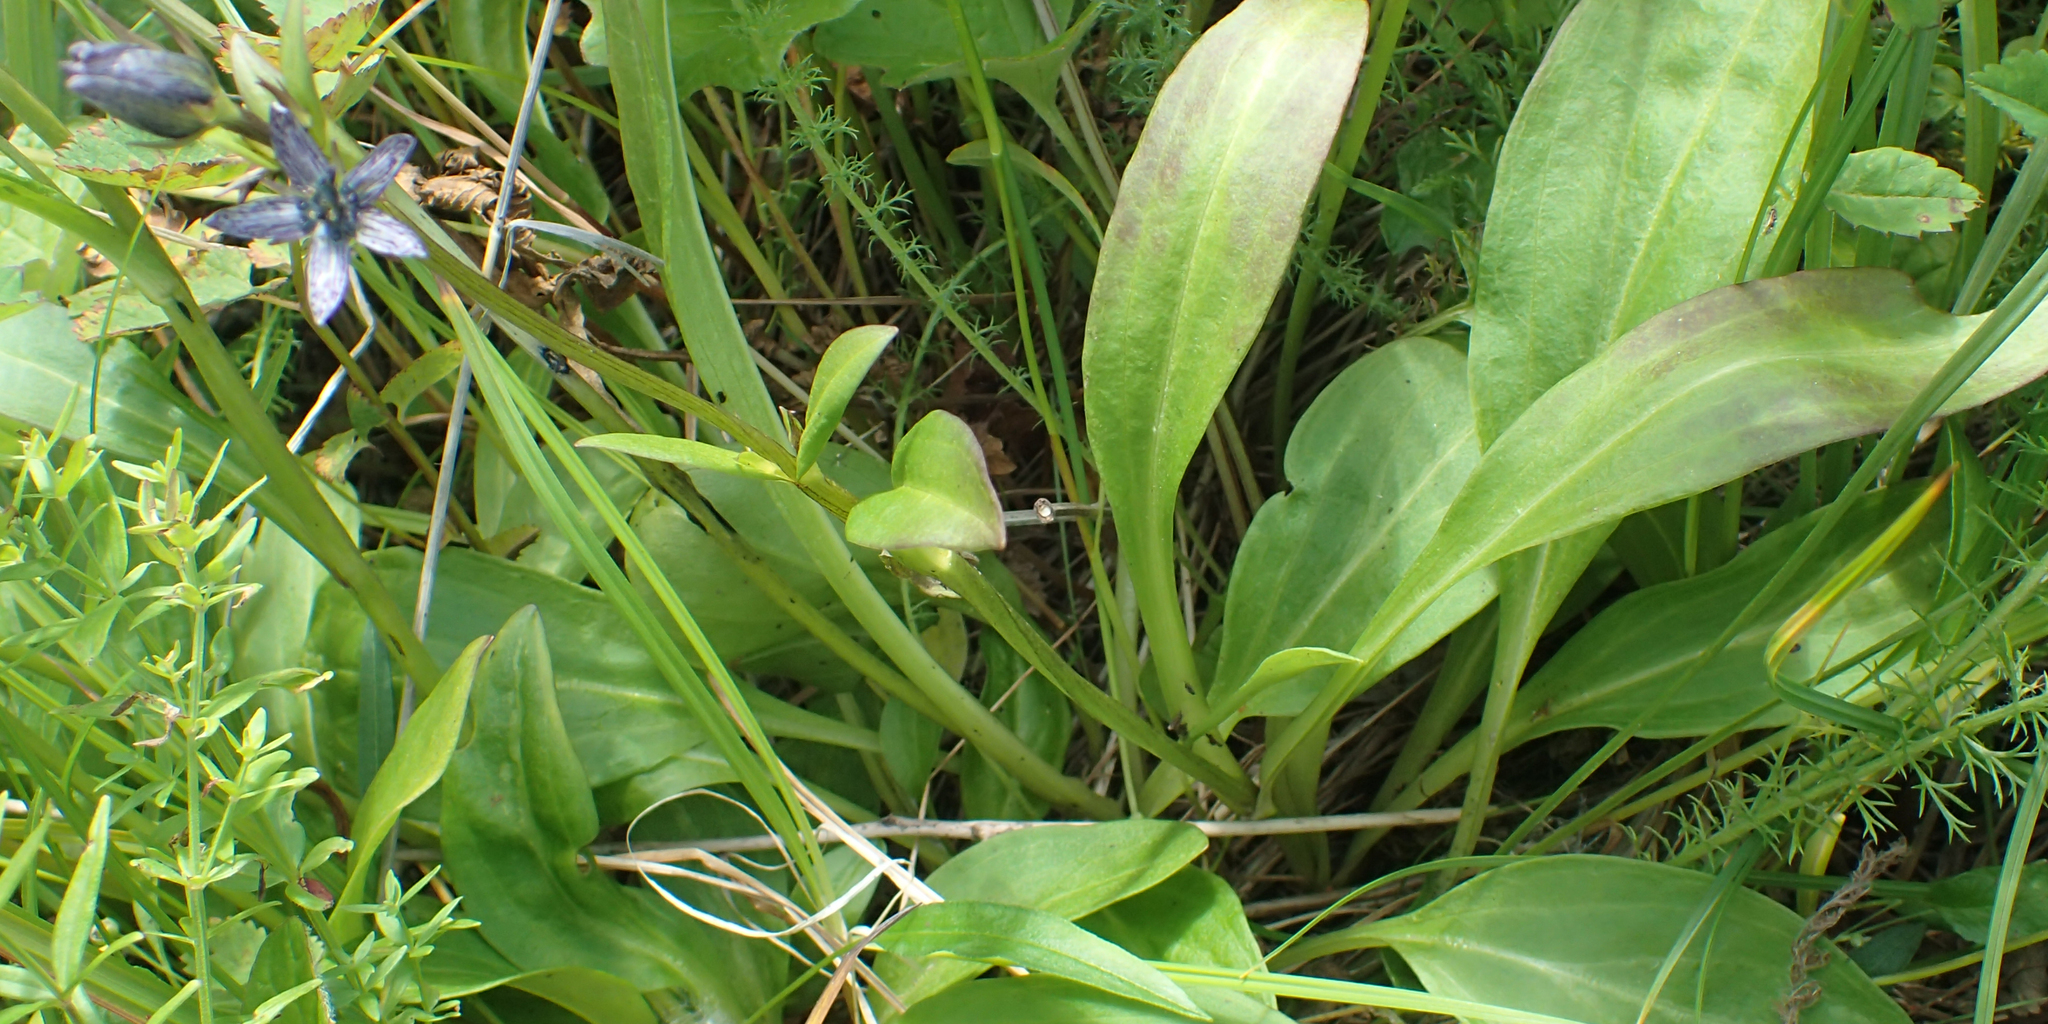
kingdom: Plantae
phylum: Tracheophyta
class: Magnoliopsida
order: Gentianales
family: Gentianaceae
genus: Swertia
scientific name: Swertia perennis
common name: Alpine bog swertia
